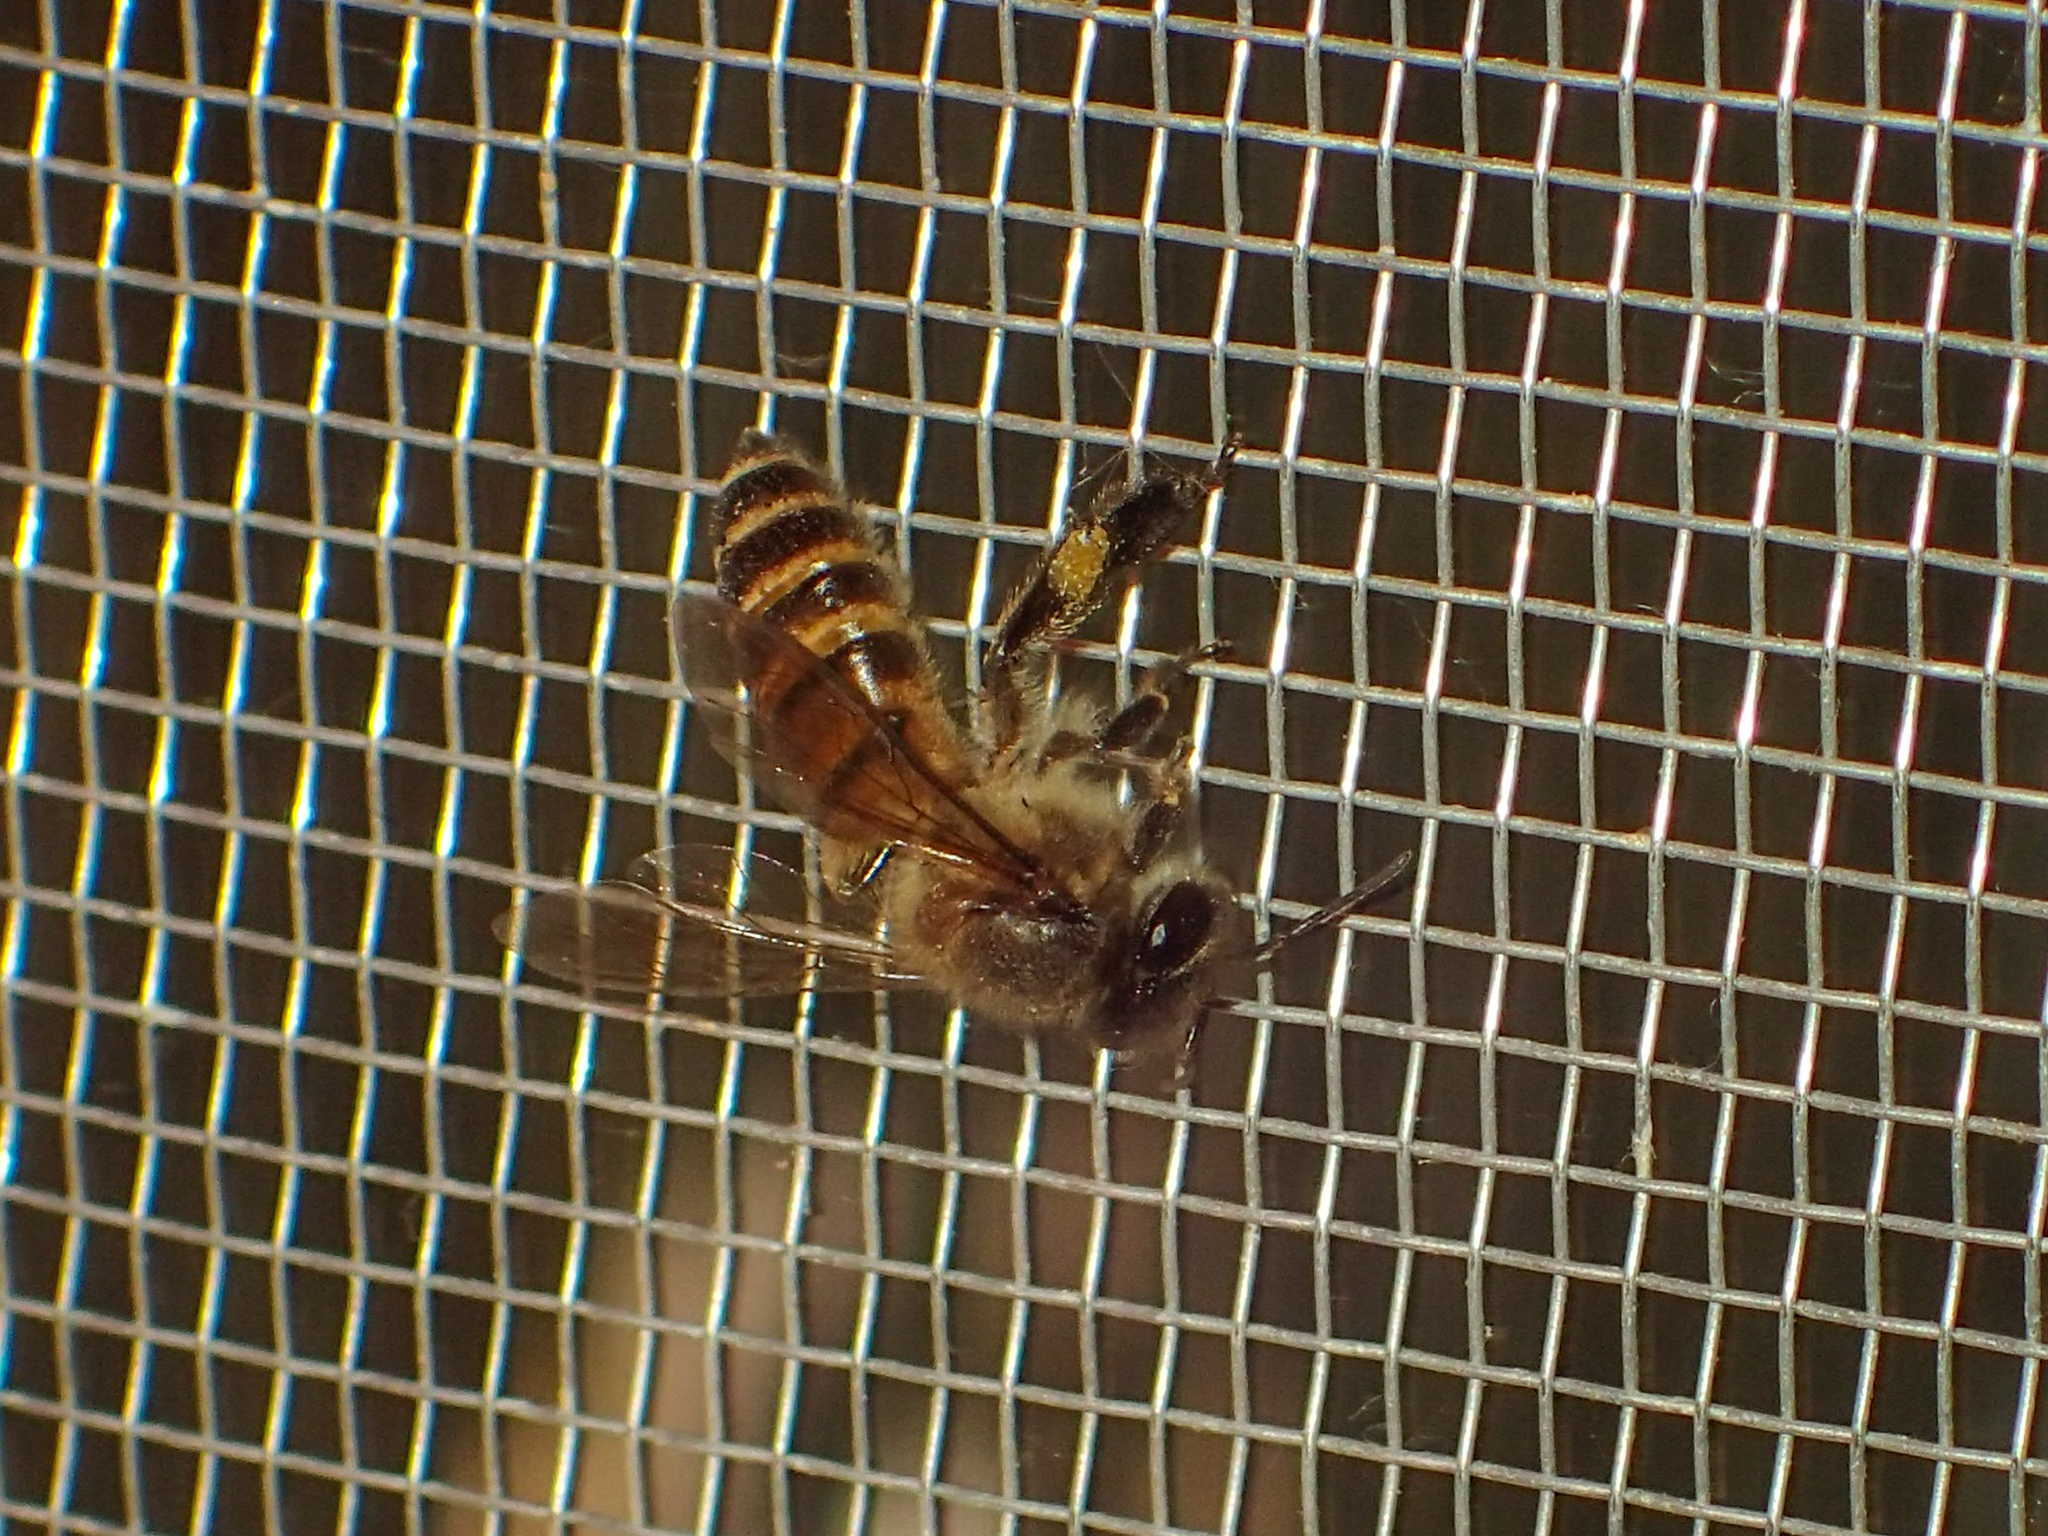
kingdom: Animalia
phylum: Arthropoda
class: Insecta
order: Hymenoptera
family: Apidae
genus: Apis
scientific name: Apis cerana
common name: Honey bee
